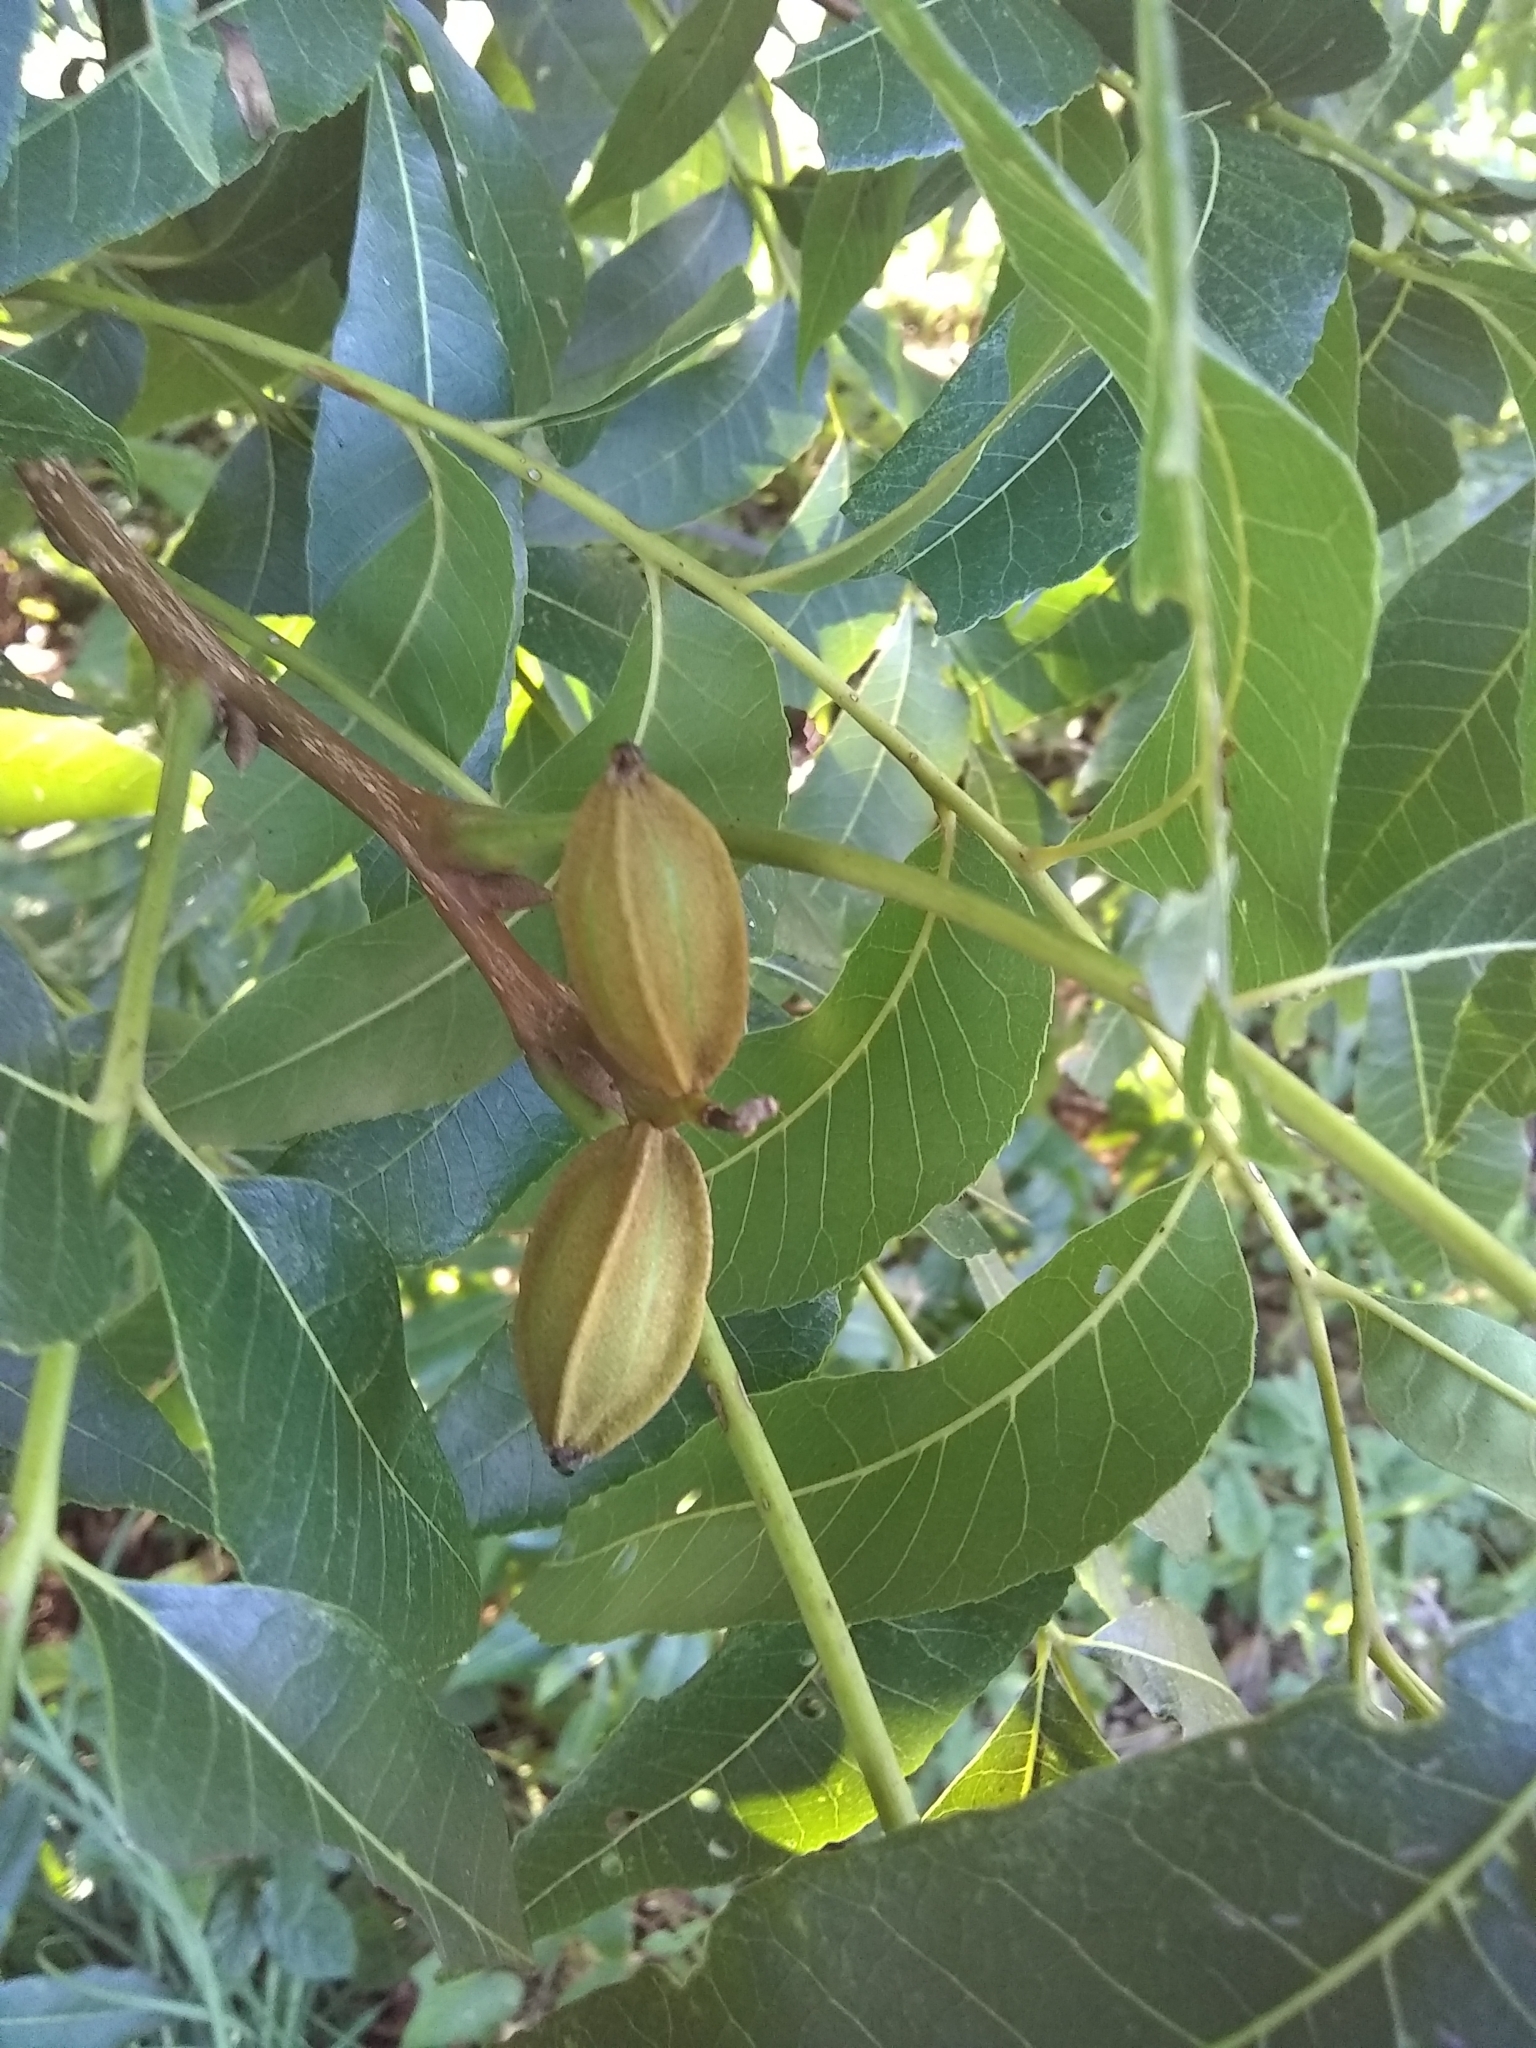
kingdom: Plantae
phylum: Tracheophyta
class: Magnoliopsida
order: Fagales
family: Juglandaceae
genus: Carya
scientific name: Carya illinoinensis
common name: Pecan
